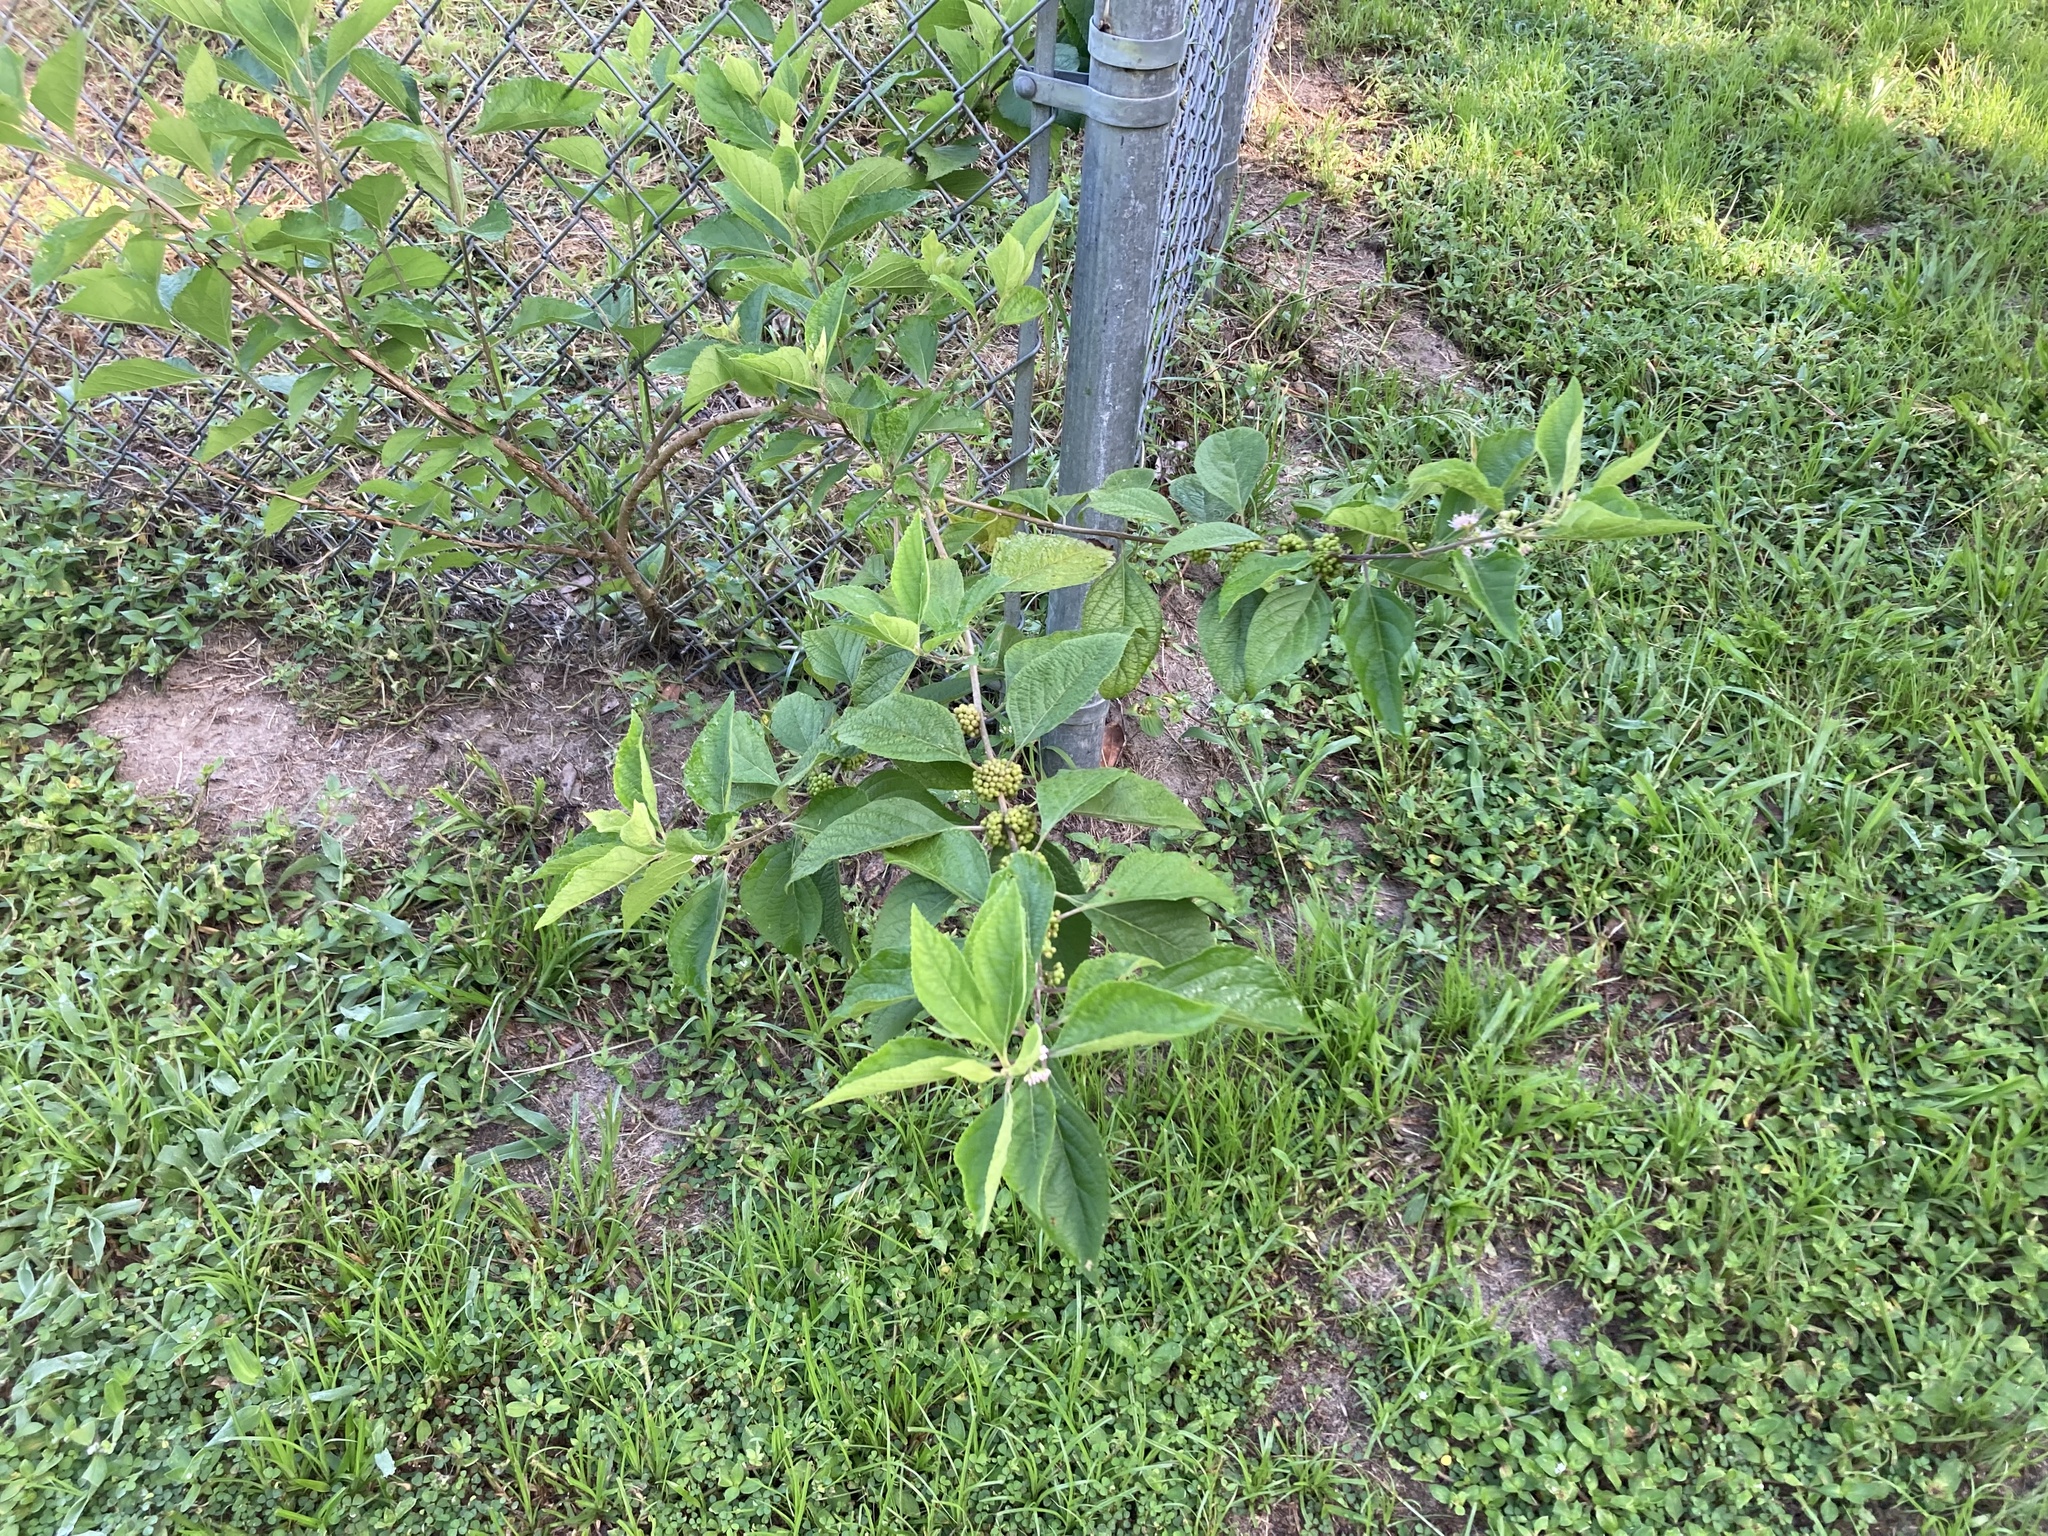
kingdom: Plantae
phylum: Tracheophyta
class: Magnoliopsida
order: Lamiales
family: Lamiaceae
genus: Callicarpa
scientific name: Callicarpa americana
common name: American beautyberry
